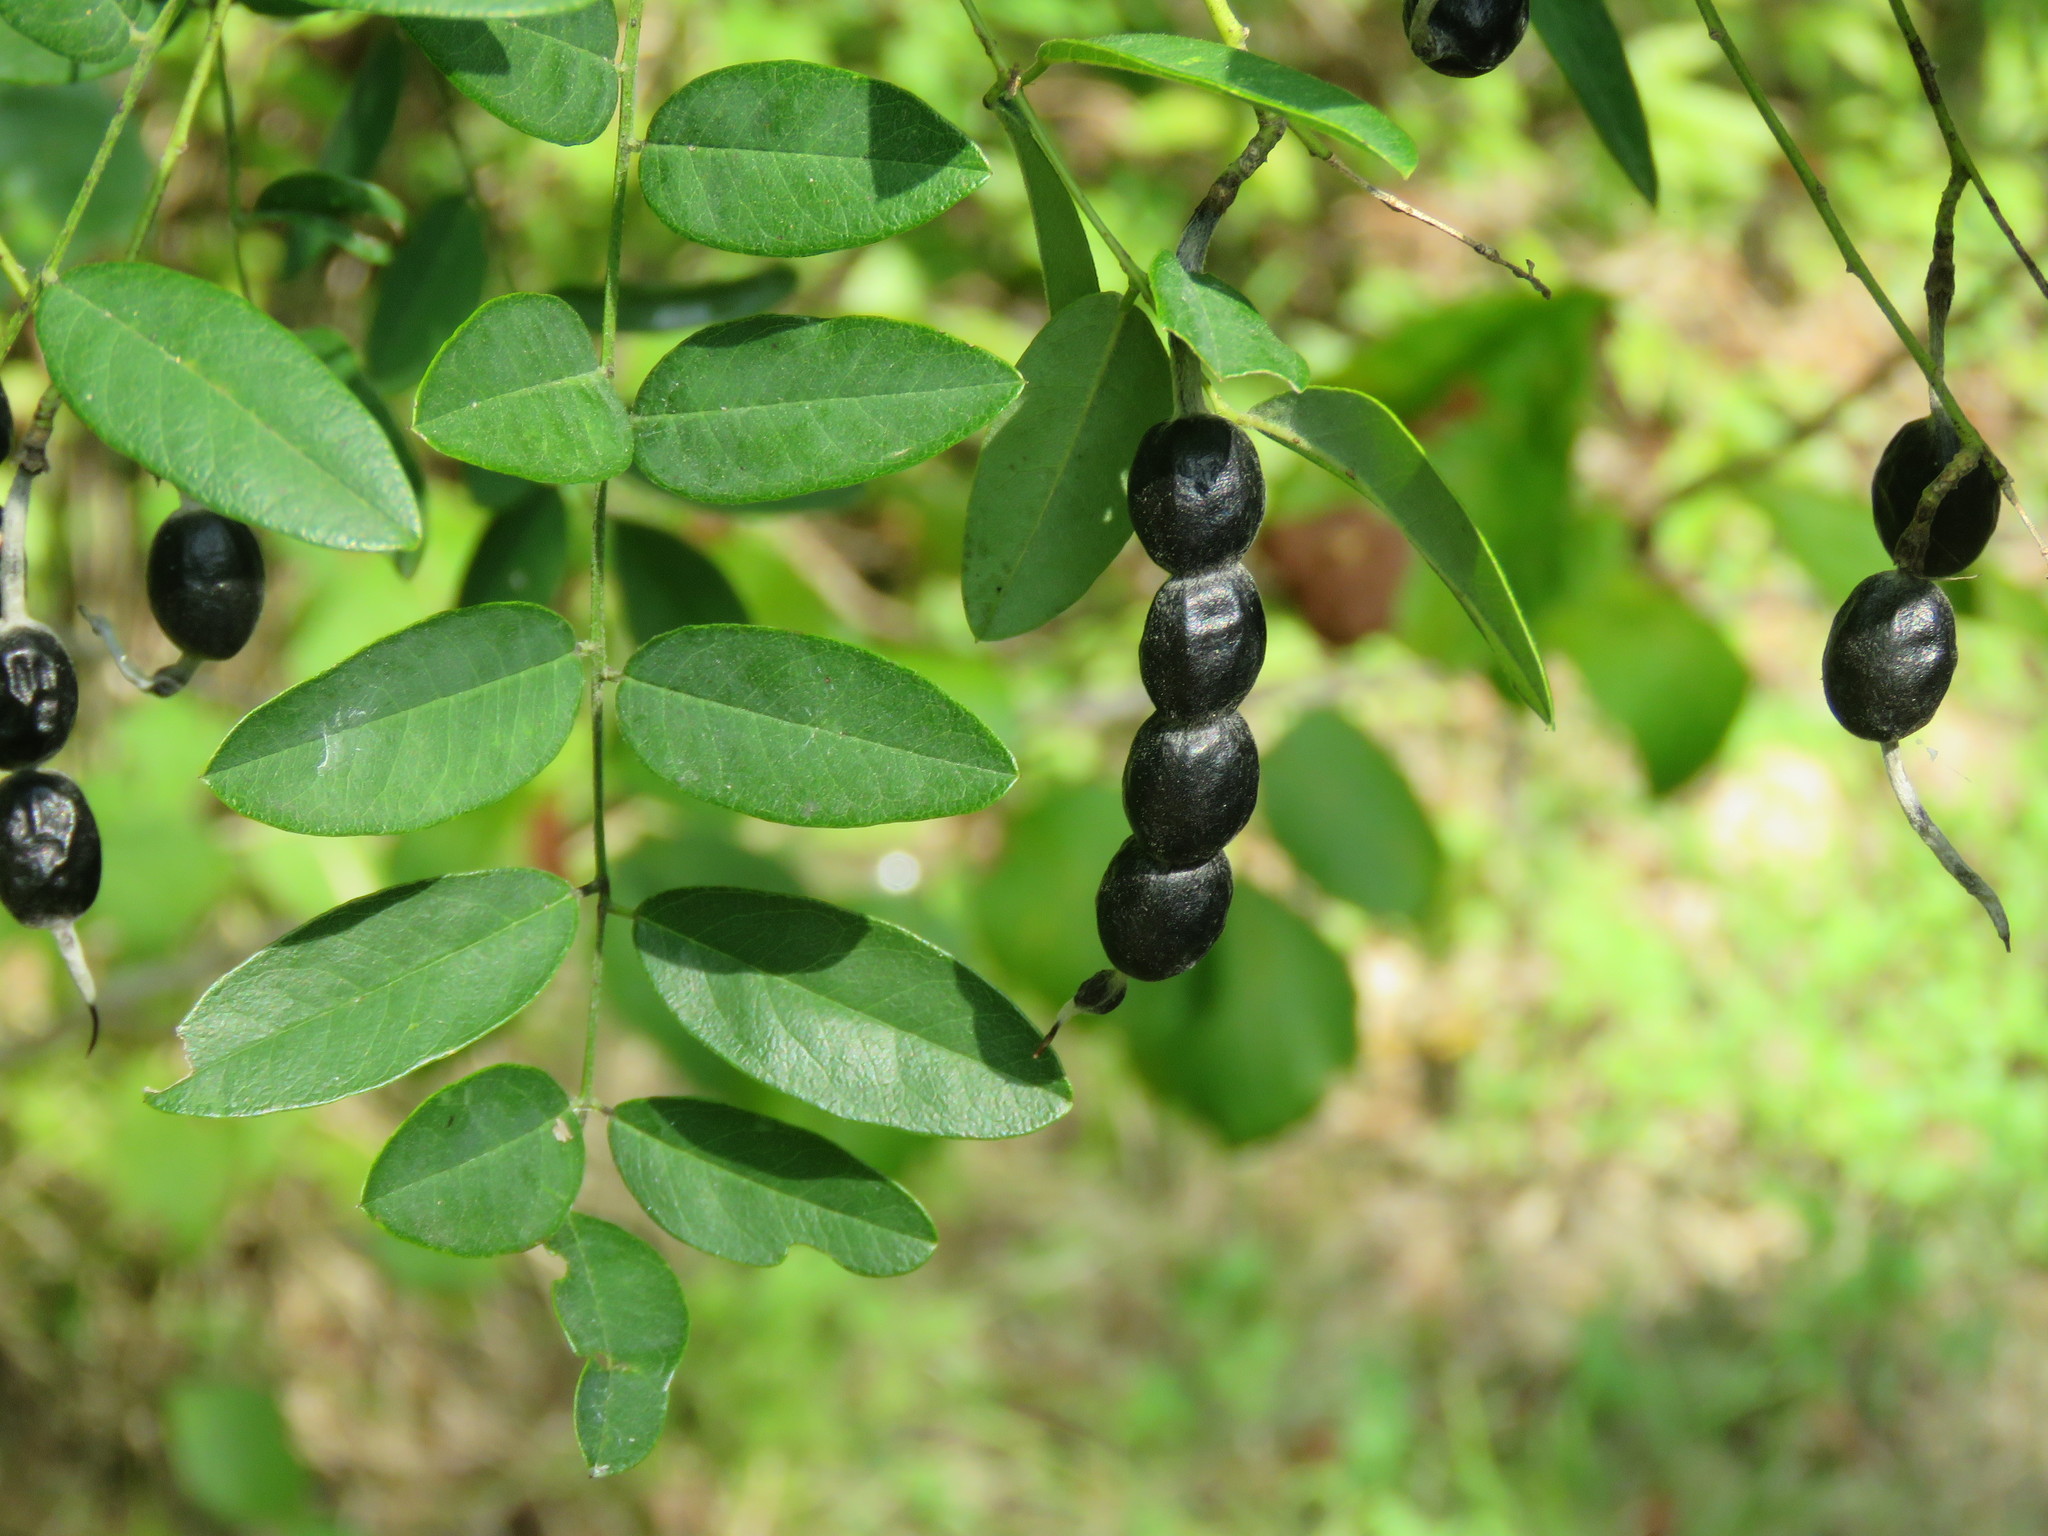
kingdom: Plantae
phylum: Tracheophyta
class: Magnoliopsida
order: Fabales
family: Fabaceae
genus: Styphnolobium
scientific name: Styphnolobium affine
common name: Texas sophora
